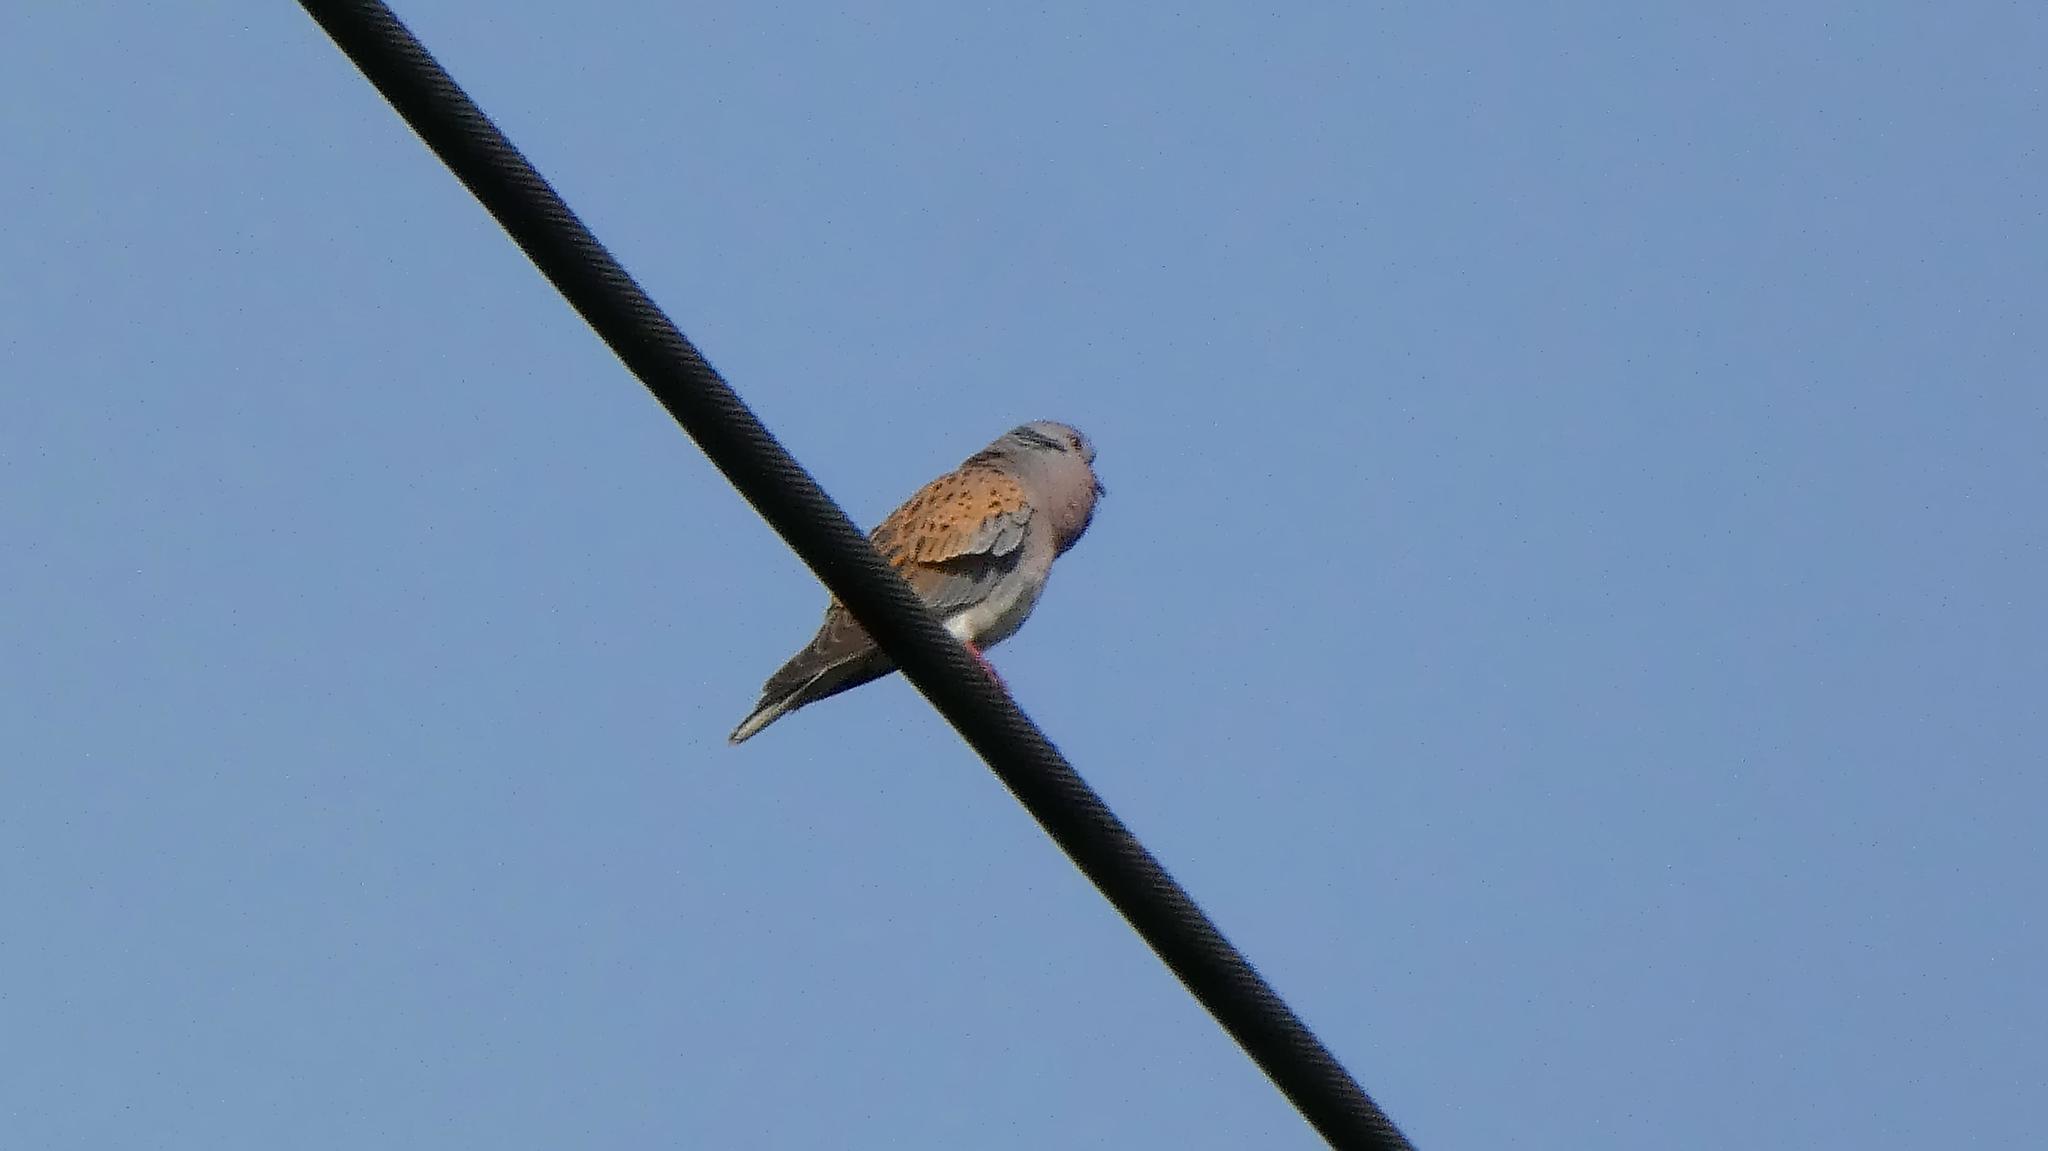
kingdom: Animalia
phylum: Chordata
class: Aves
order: Columbiformes
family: Columbidae
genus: Streptopelia
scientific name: Streptopelia turtur
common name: European turtle dove
